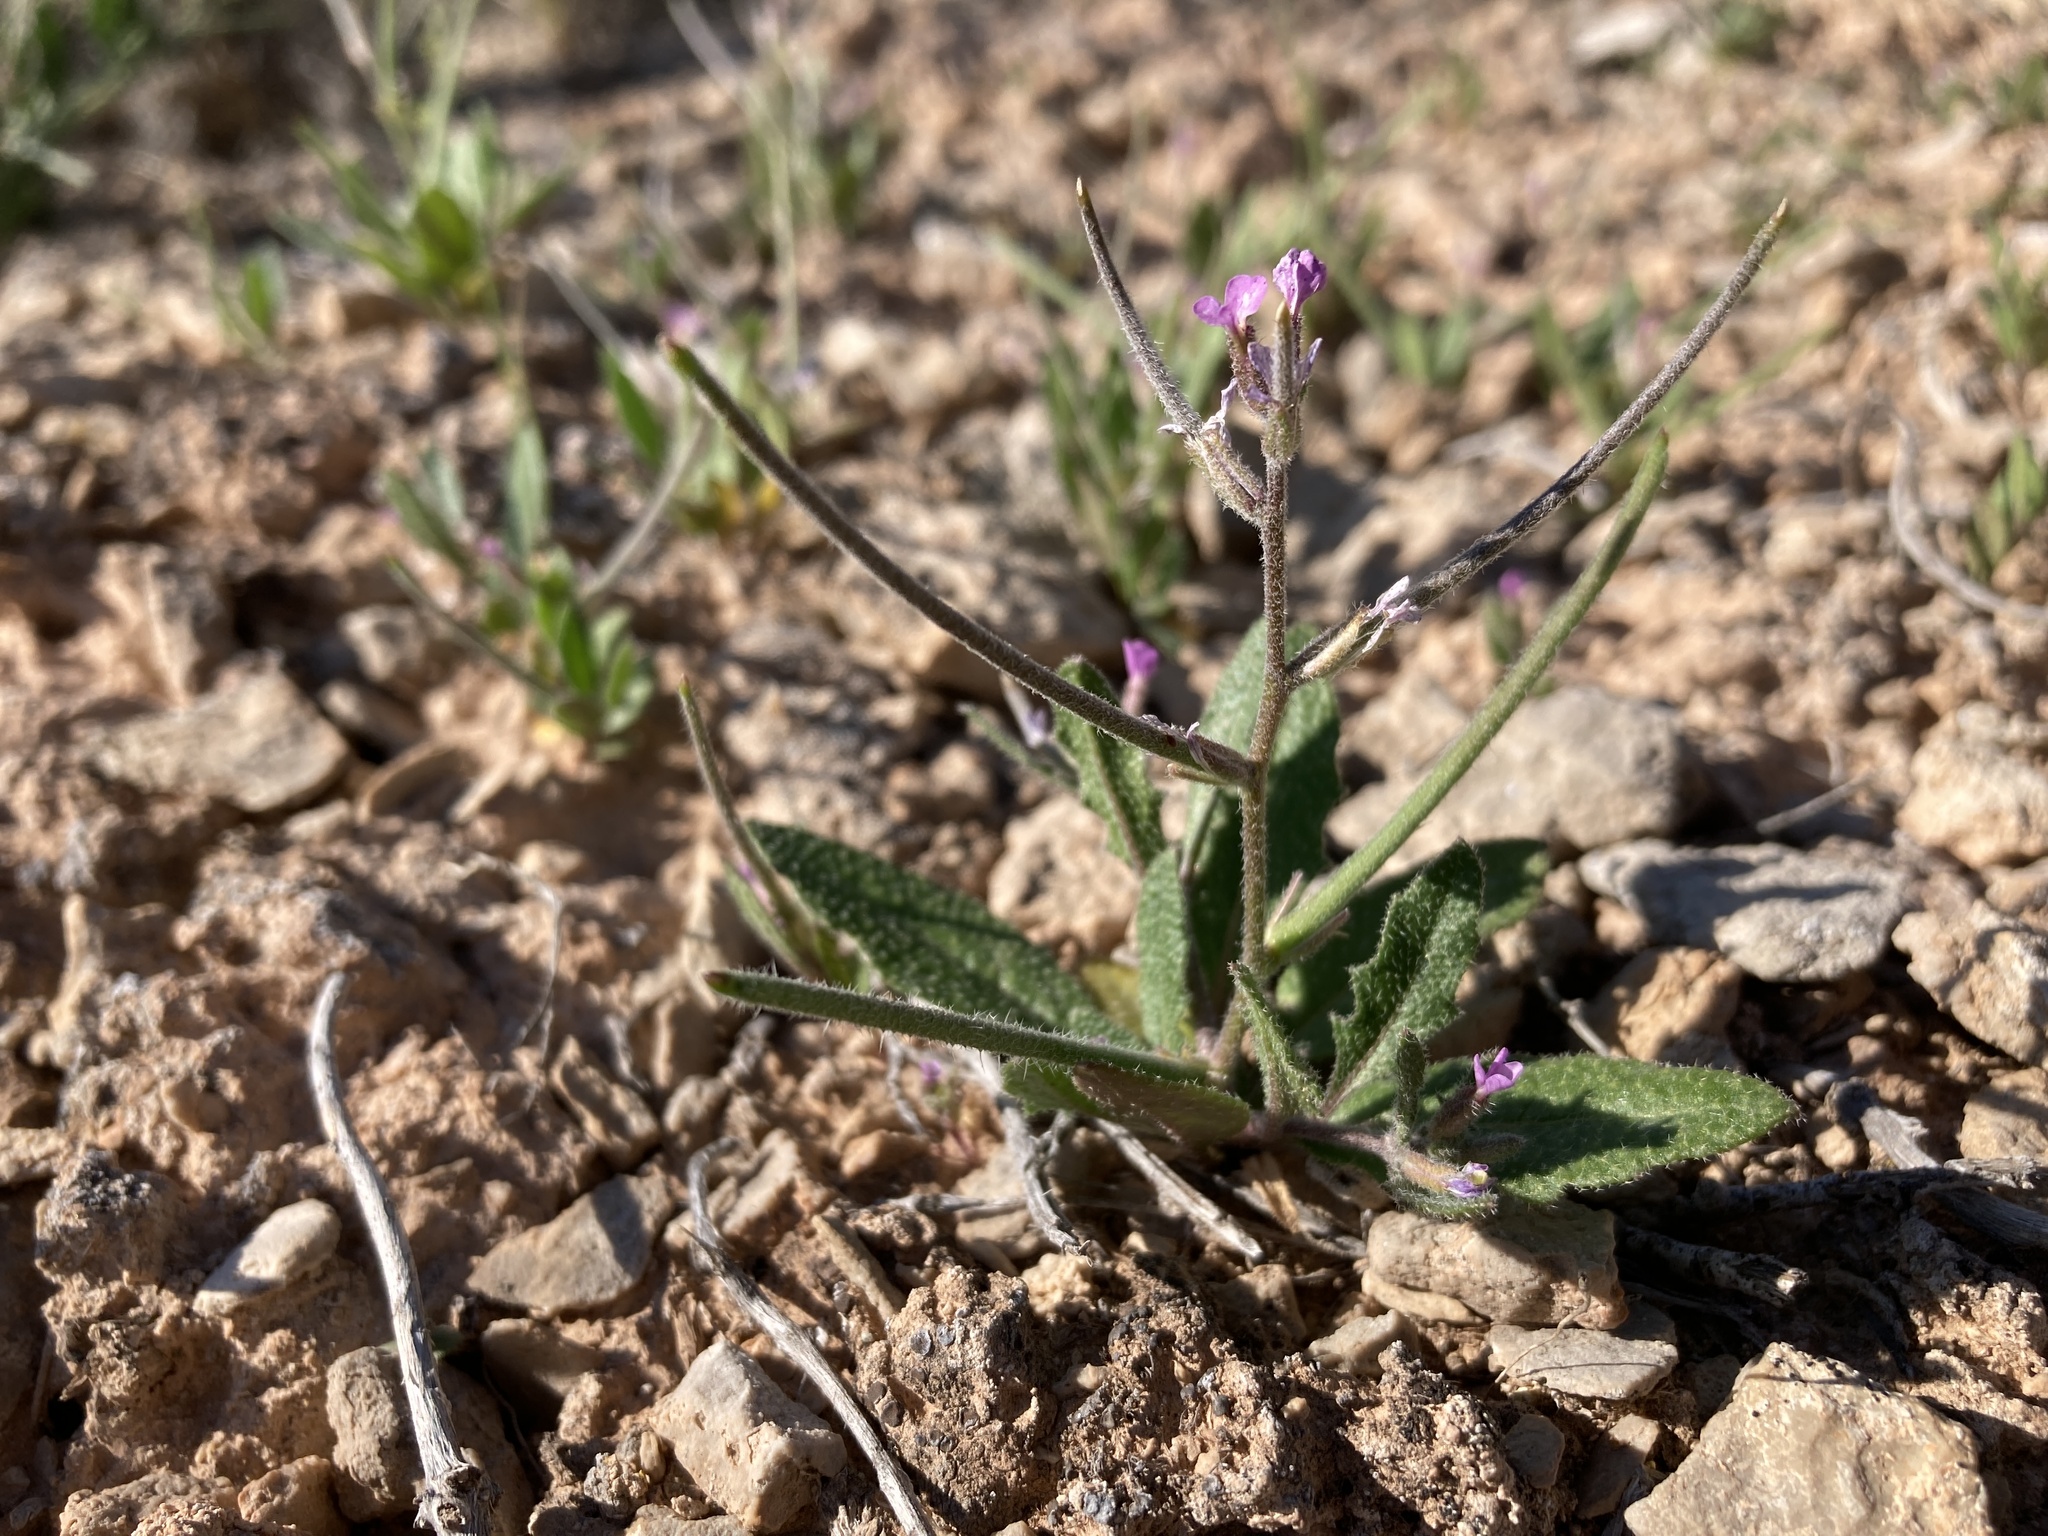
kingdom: Plantae
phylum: Tracheophyta
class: Magnoliopsida
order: Brassicales
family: Brassicaceae
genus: Strigosella
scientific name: Strigosella africana
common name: African mustard
